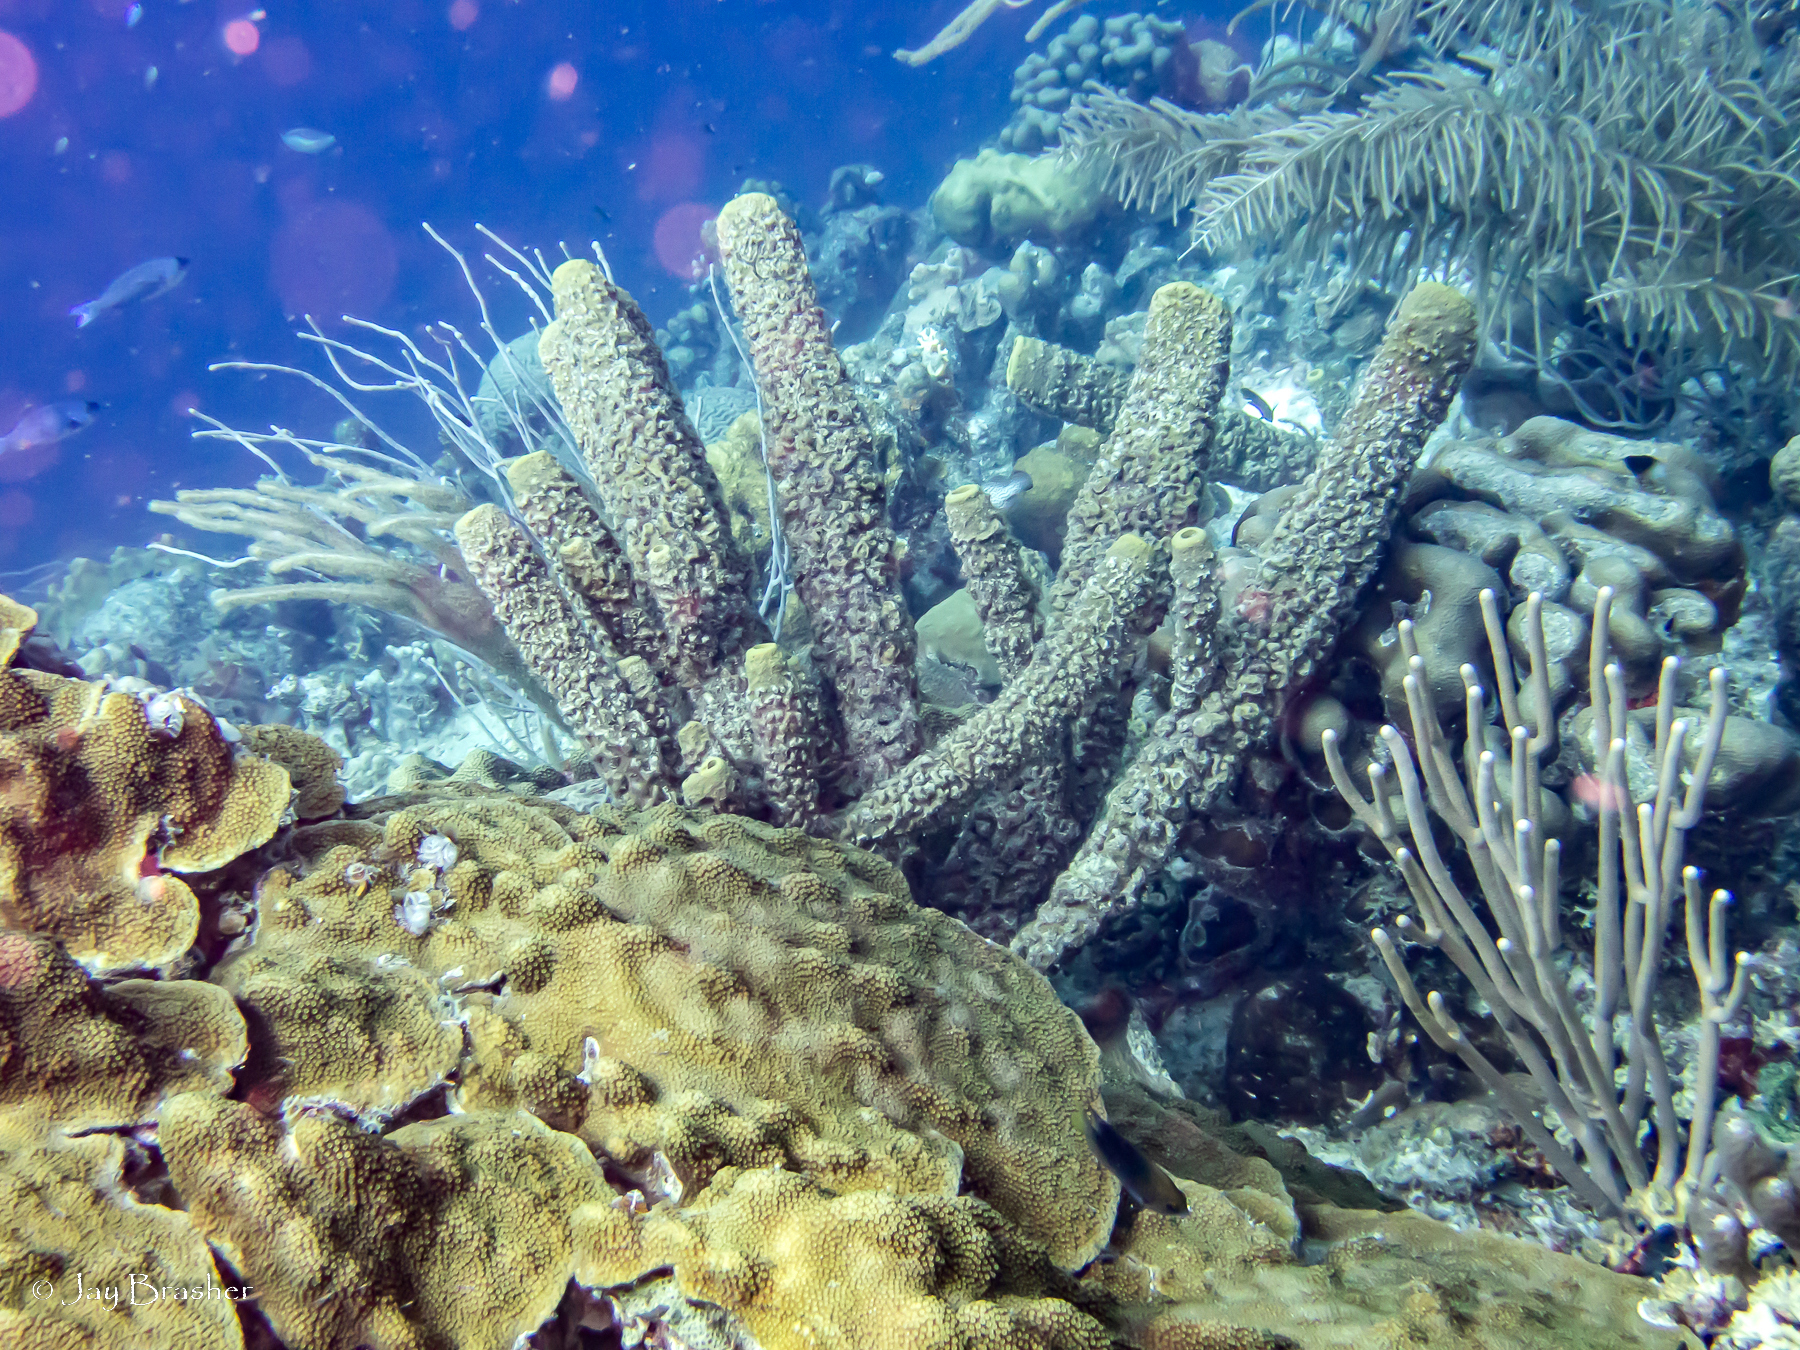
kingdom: Animalia
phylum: Porifera
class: Demospongiae
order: Verongiida
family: Aplysinidae
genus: Aplysina
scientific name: Aplysina archeri
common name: Stove-pipe sponge
